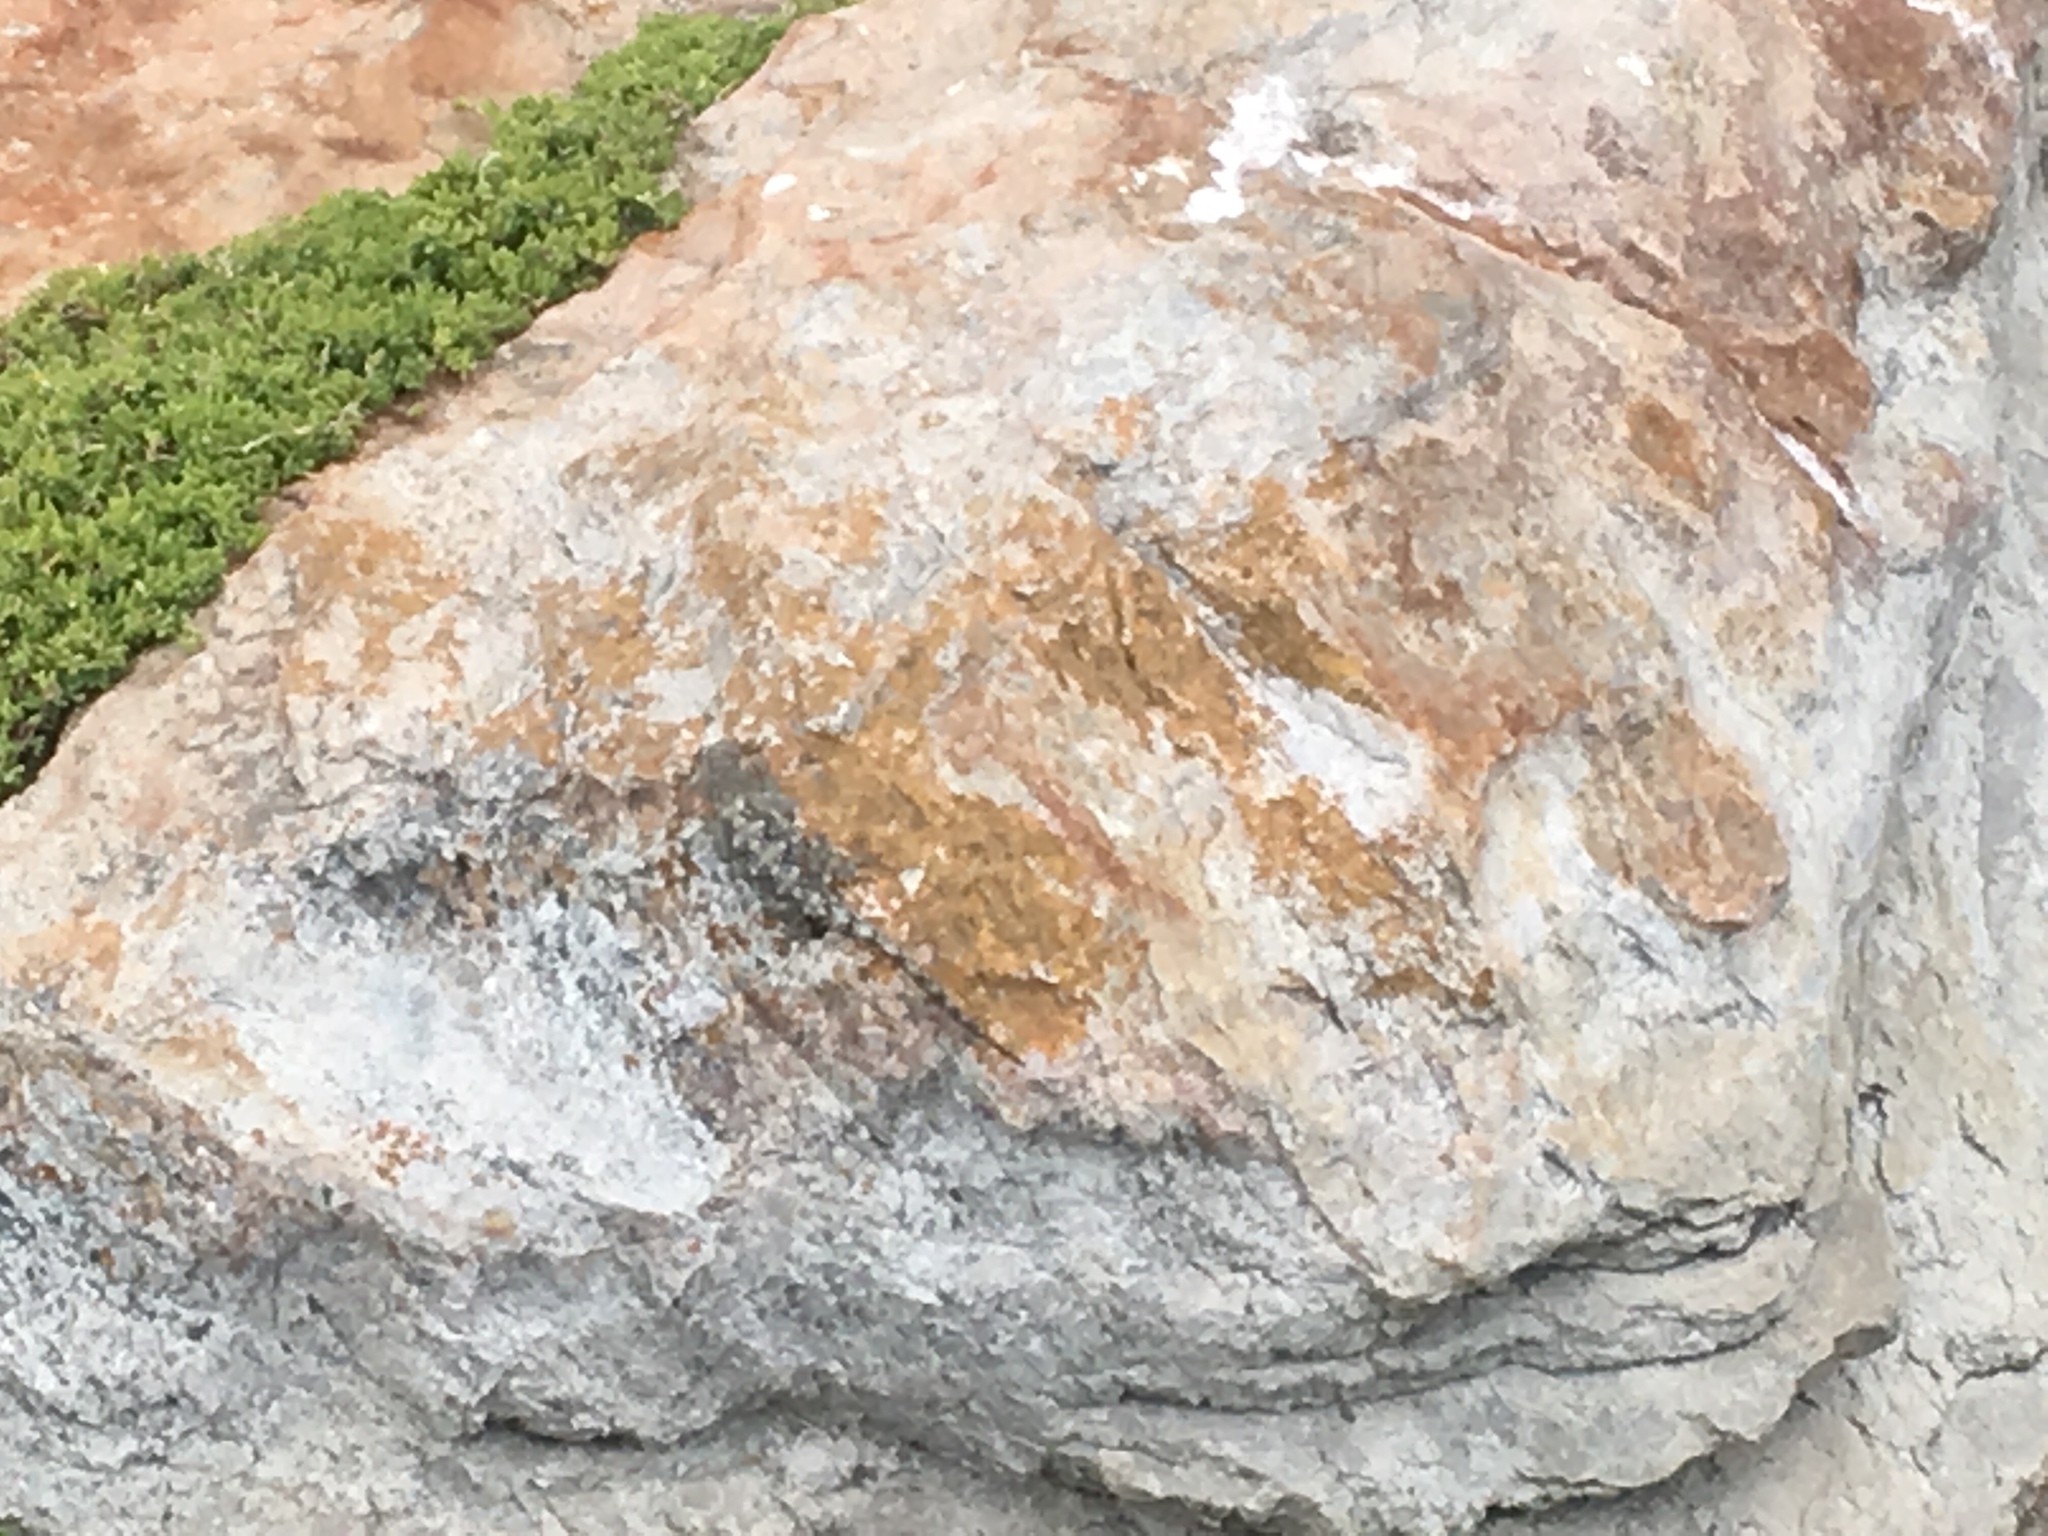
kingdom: Animalia
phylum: Chordata
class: Squamata
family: Agamidae
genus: Agama
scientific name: Agama atra
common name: Southern african rock agama
